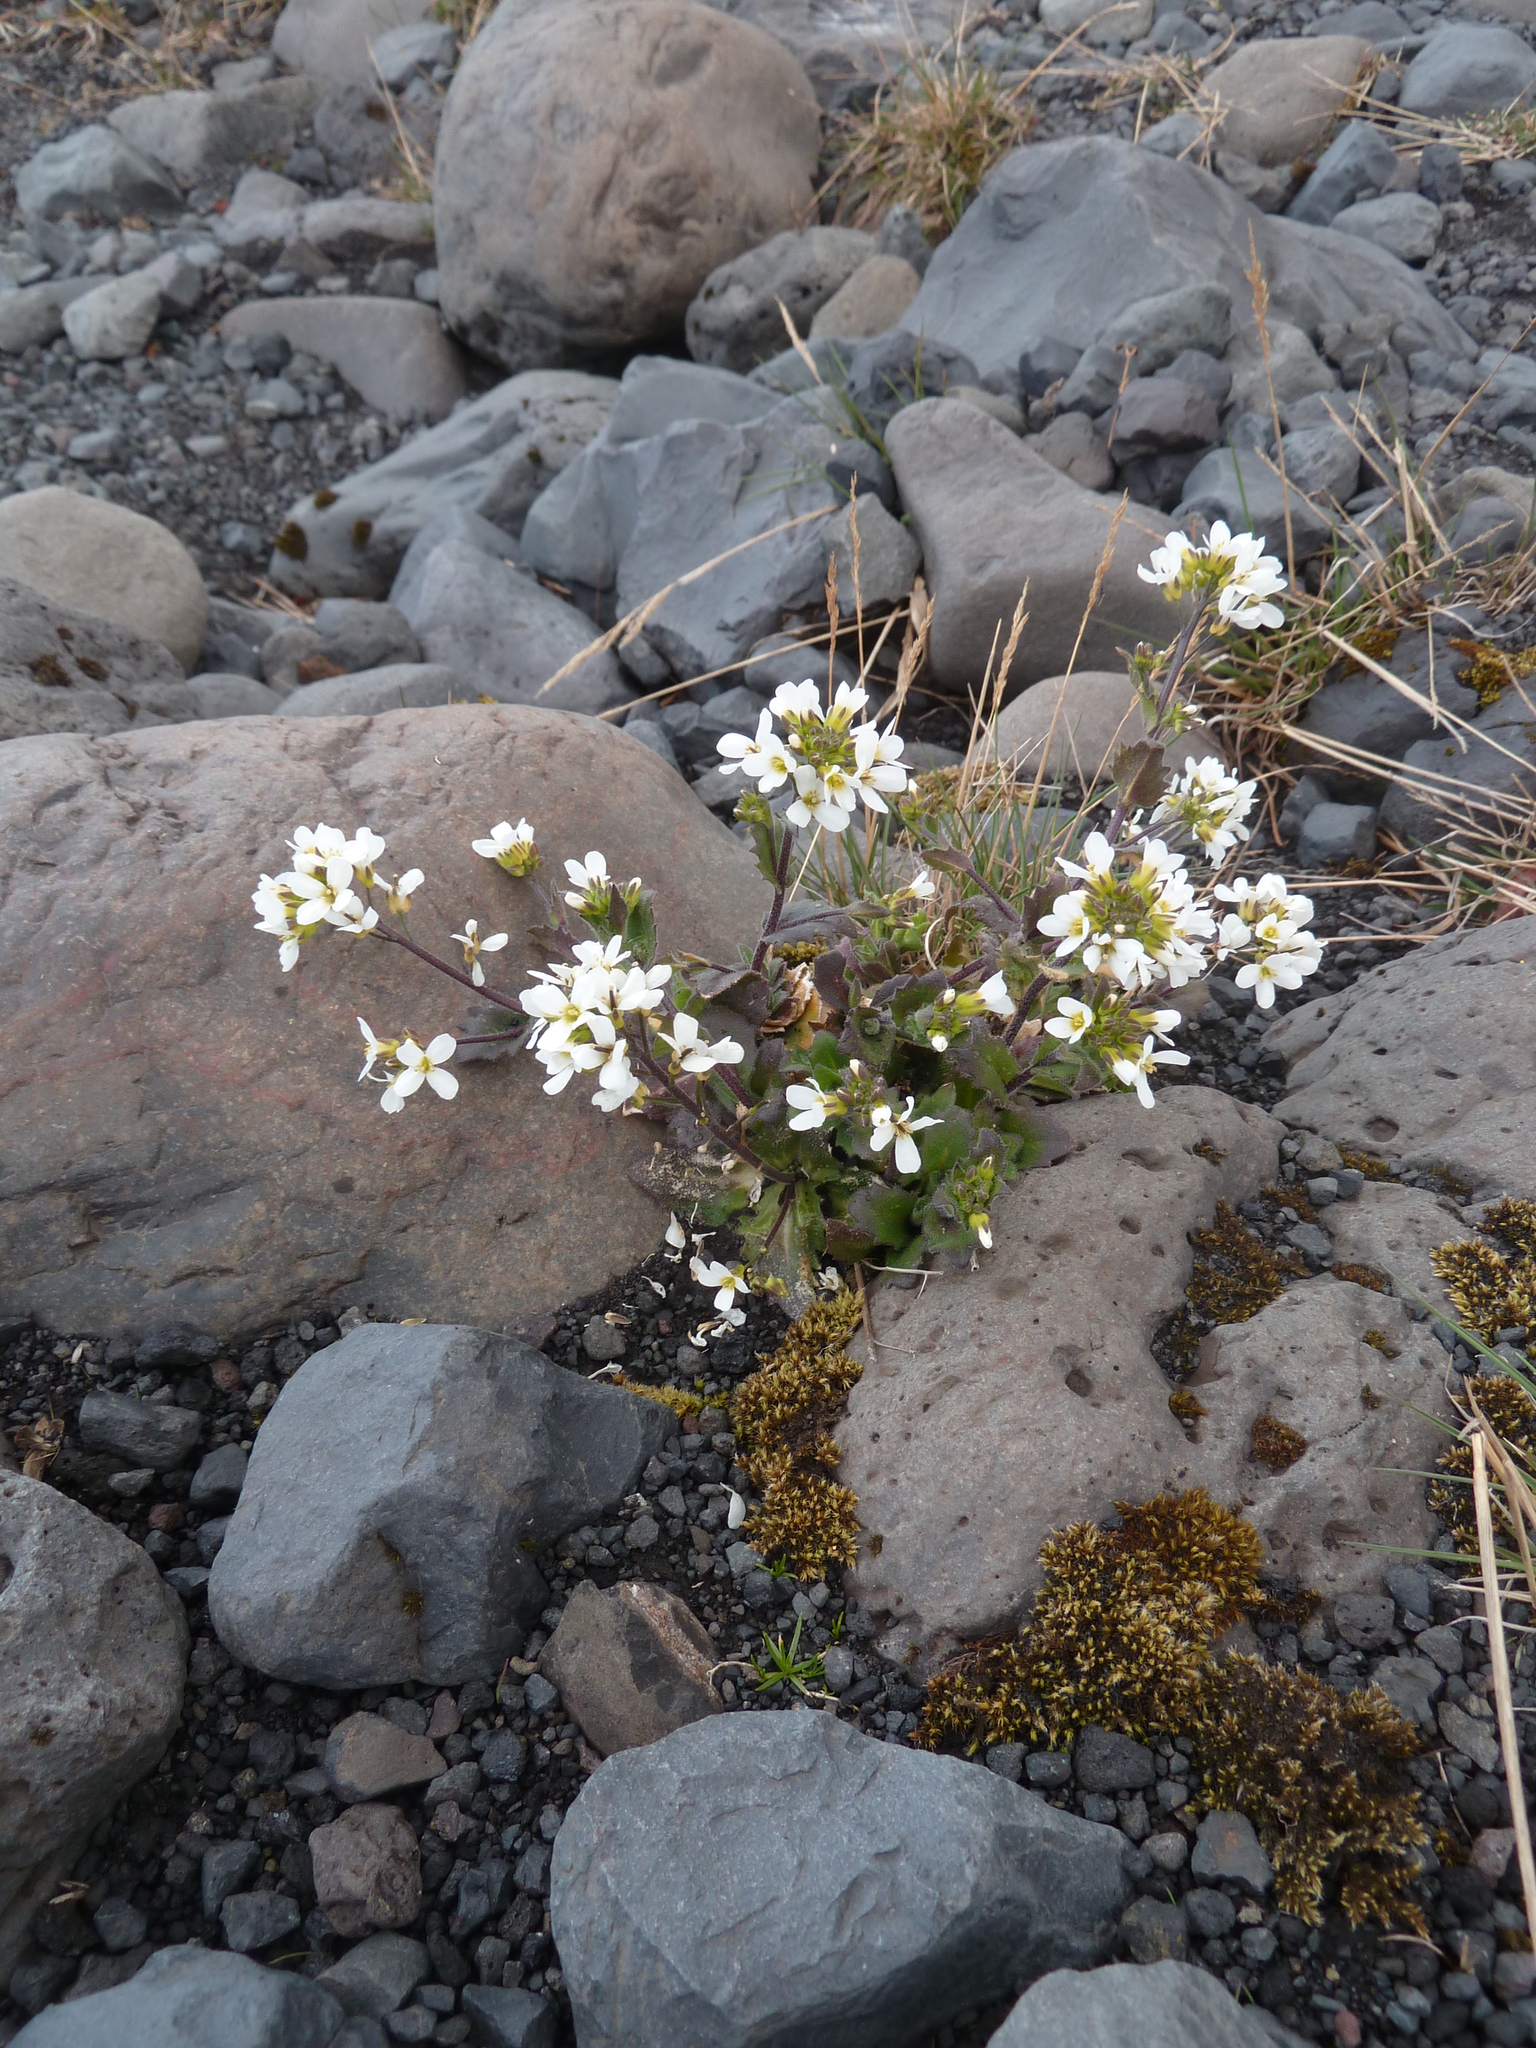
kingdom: Plantae
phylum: Tracheophyta
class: Magnoliopsida
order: Brassicales
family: Brassicaceae
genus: Arabis
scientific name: Arabis alpina
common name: Alpine rock-cress
